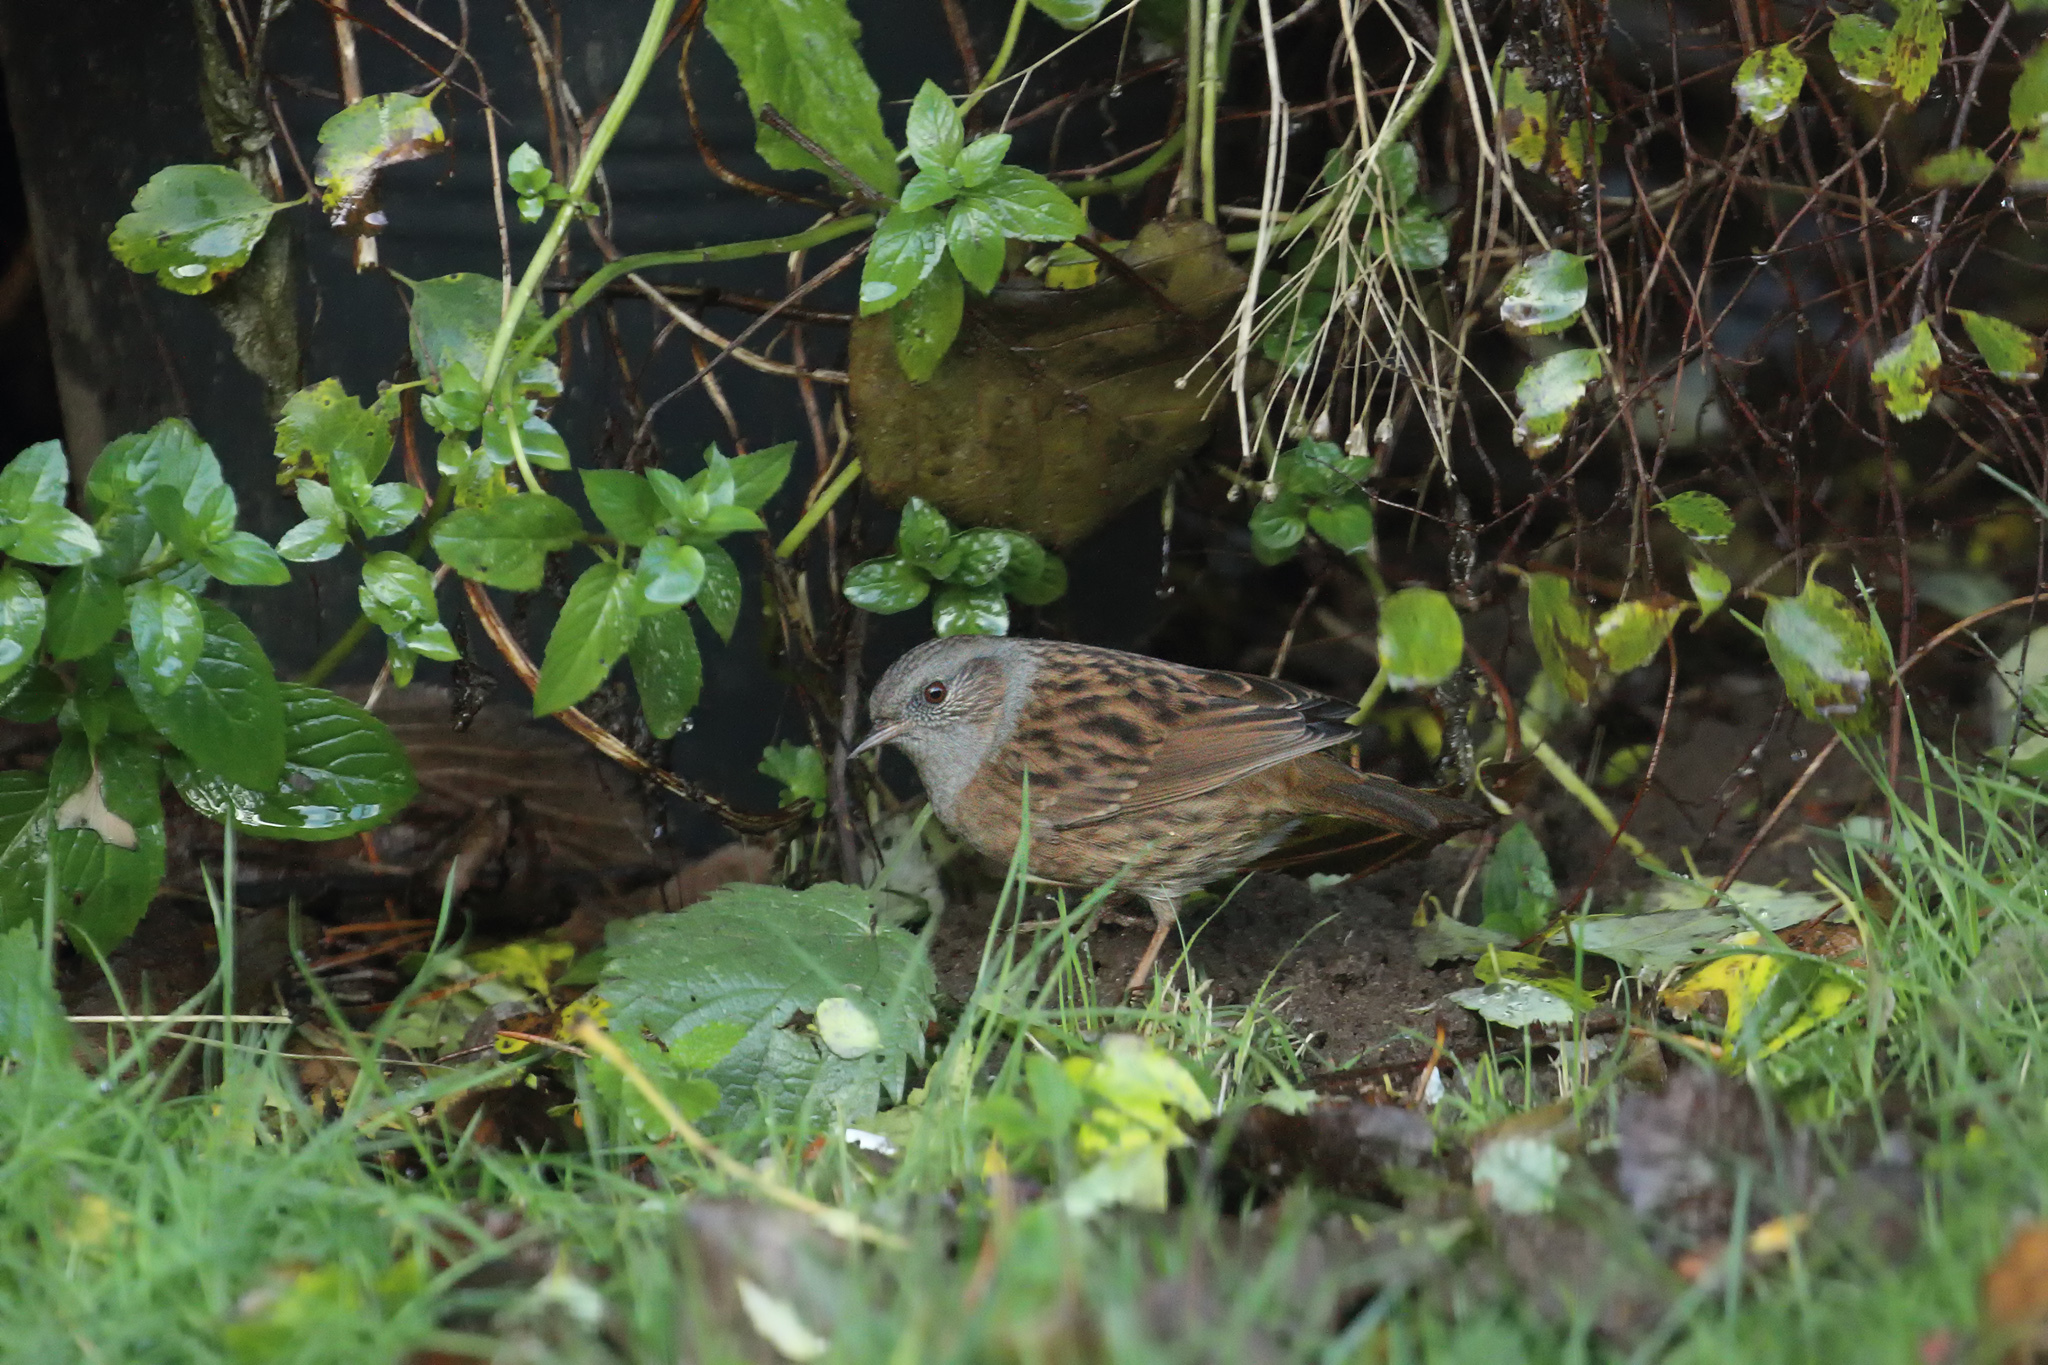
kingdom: Animalia
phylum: Chordata
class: Aves
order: Passeriformes
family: Prunellidae
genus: Prunella
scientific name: Prunella modularis
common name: Dunnock
